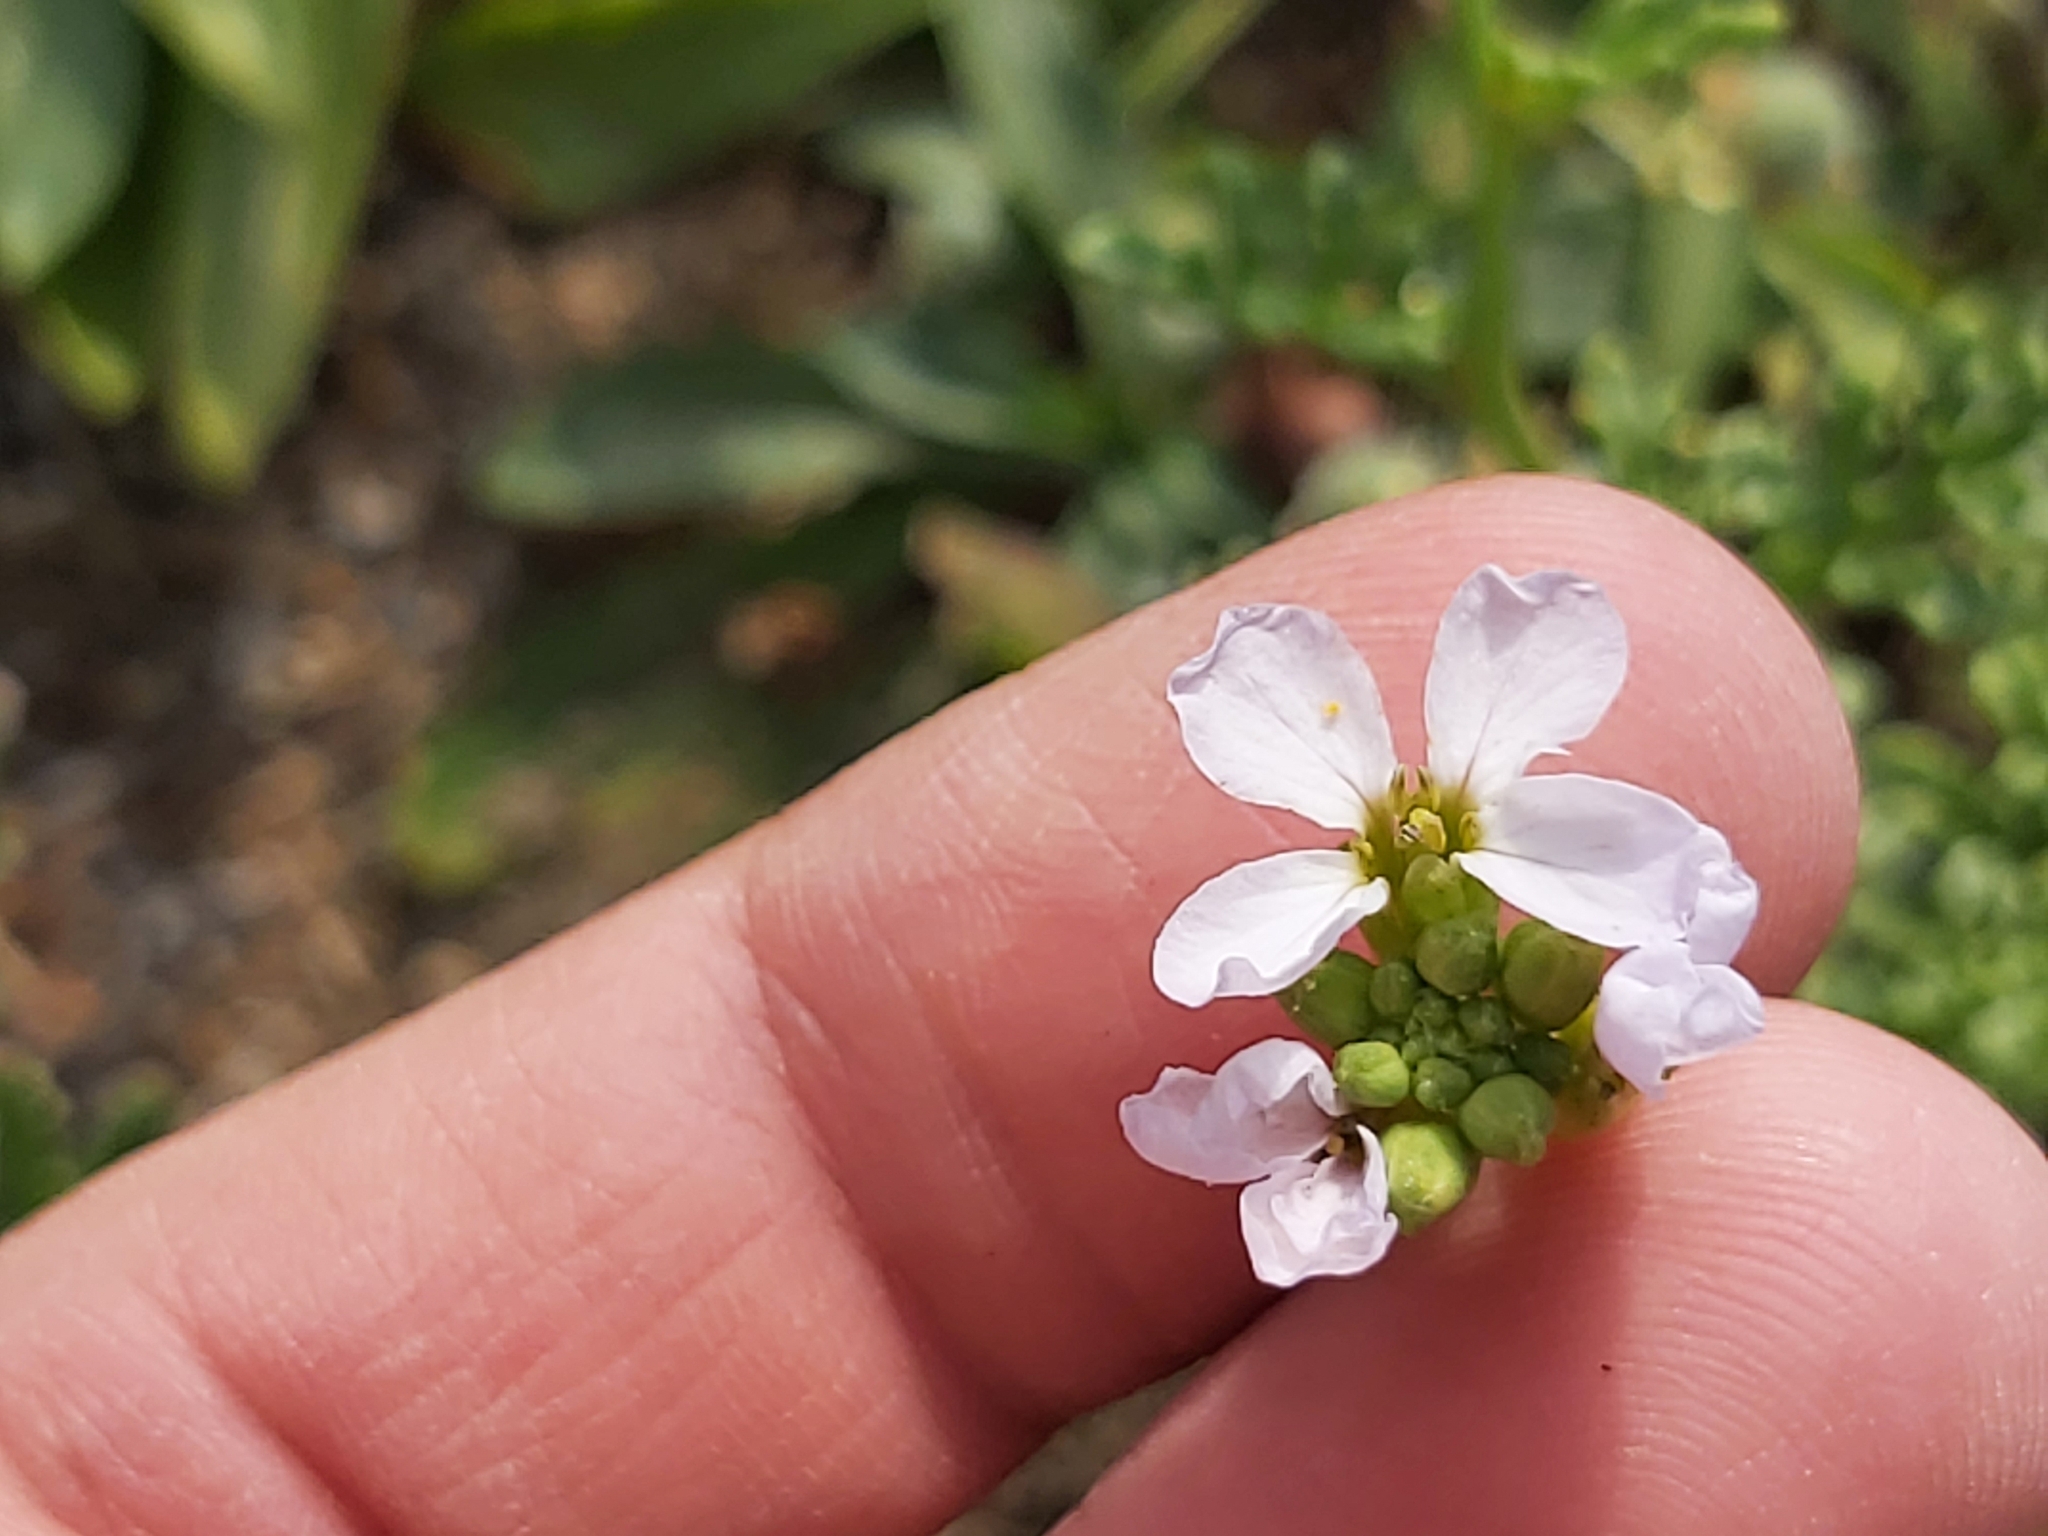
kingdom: Plantae
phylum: Tracheophyta
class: Magnoliopsida
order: Brassicales
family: Brassicaceae
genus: Cakile
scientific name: Cakile maritima
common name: Sea rocket
